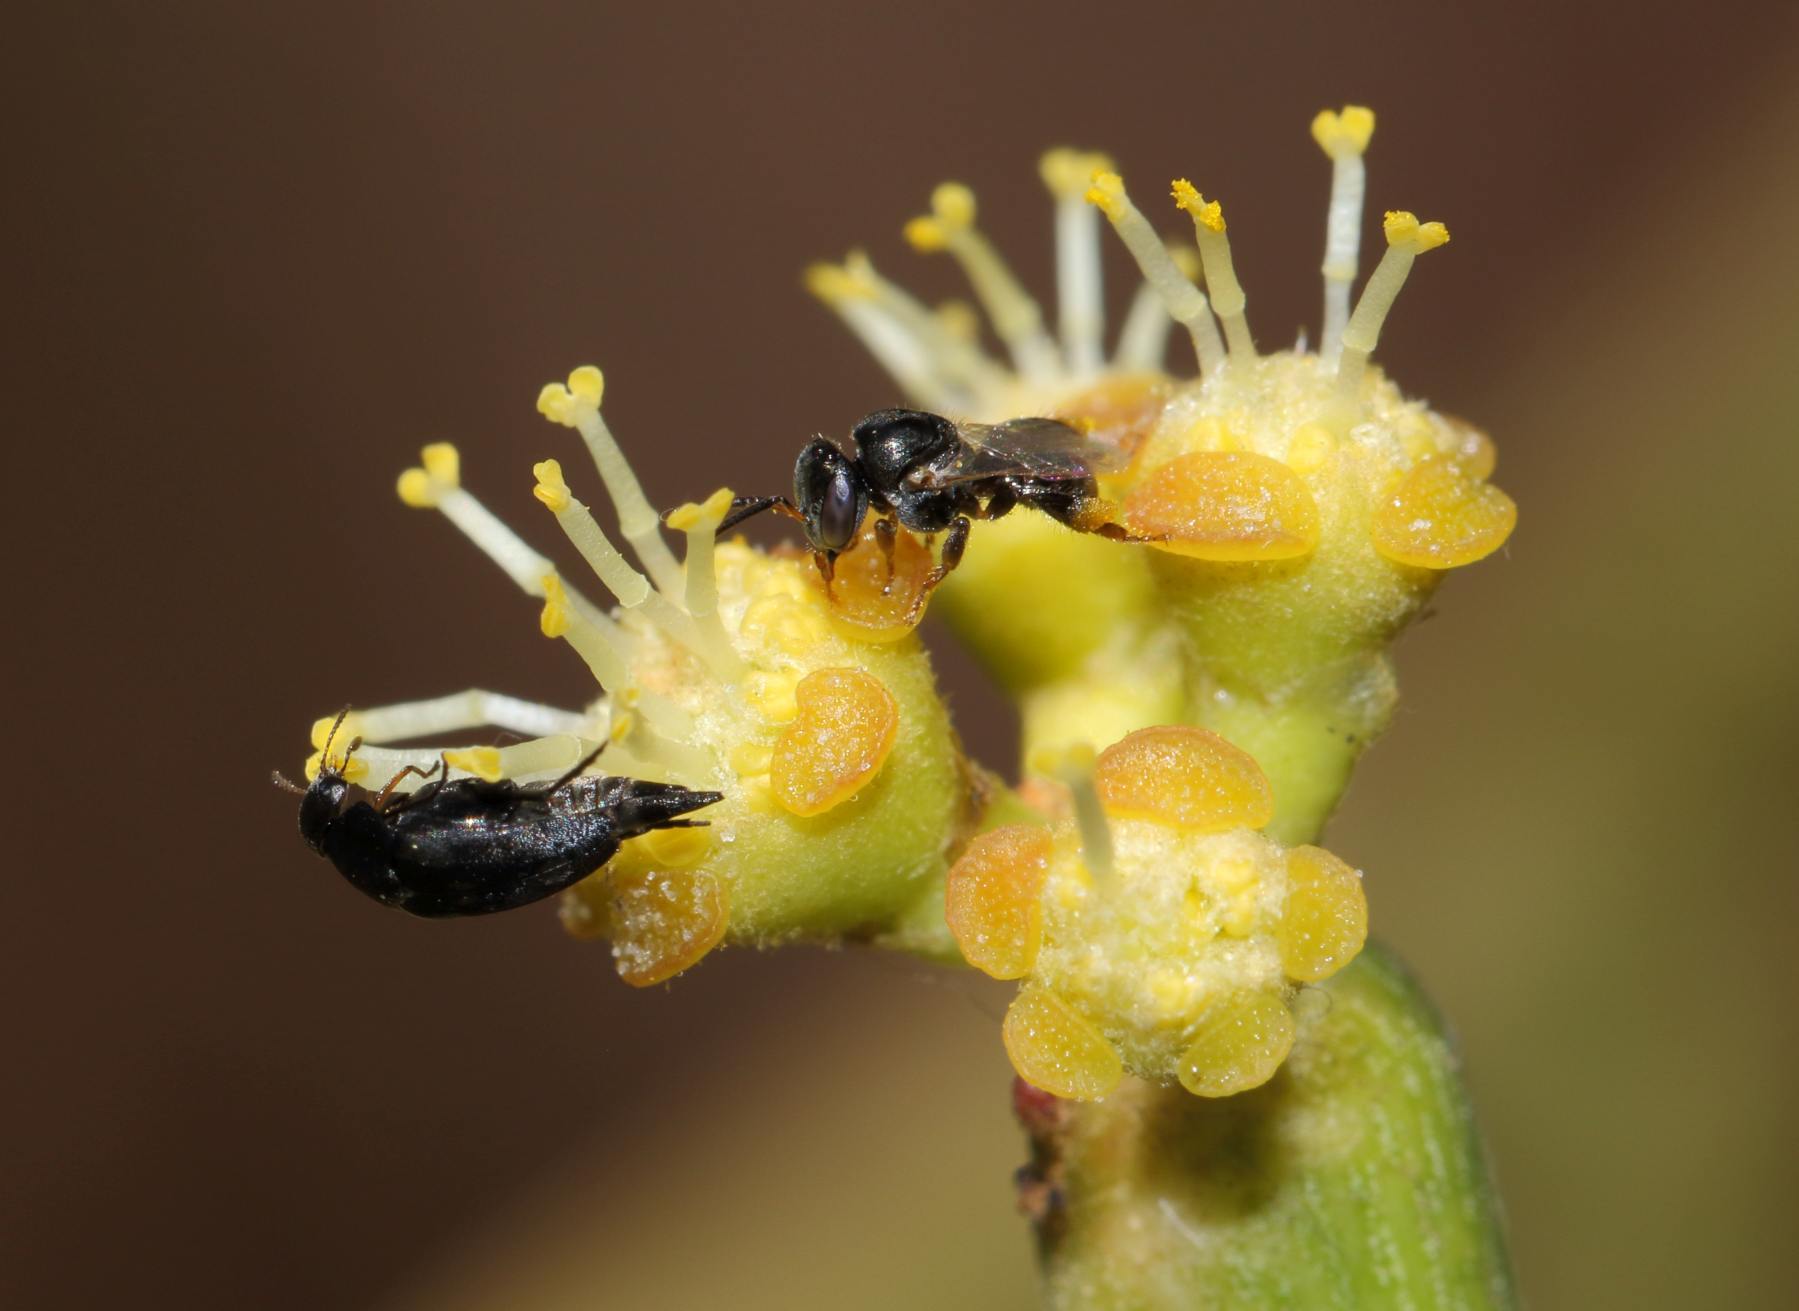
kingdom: Plantae
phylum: Tracheophyta
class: Magnoliopsida
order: Malpighiales
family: Euphorbiaceae
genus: Euphorbia
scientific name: Euphorbia tirucalli
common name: Indiantree spurge
